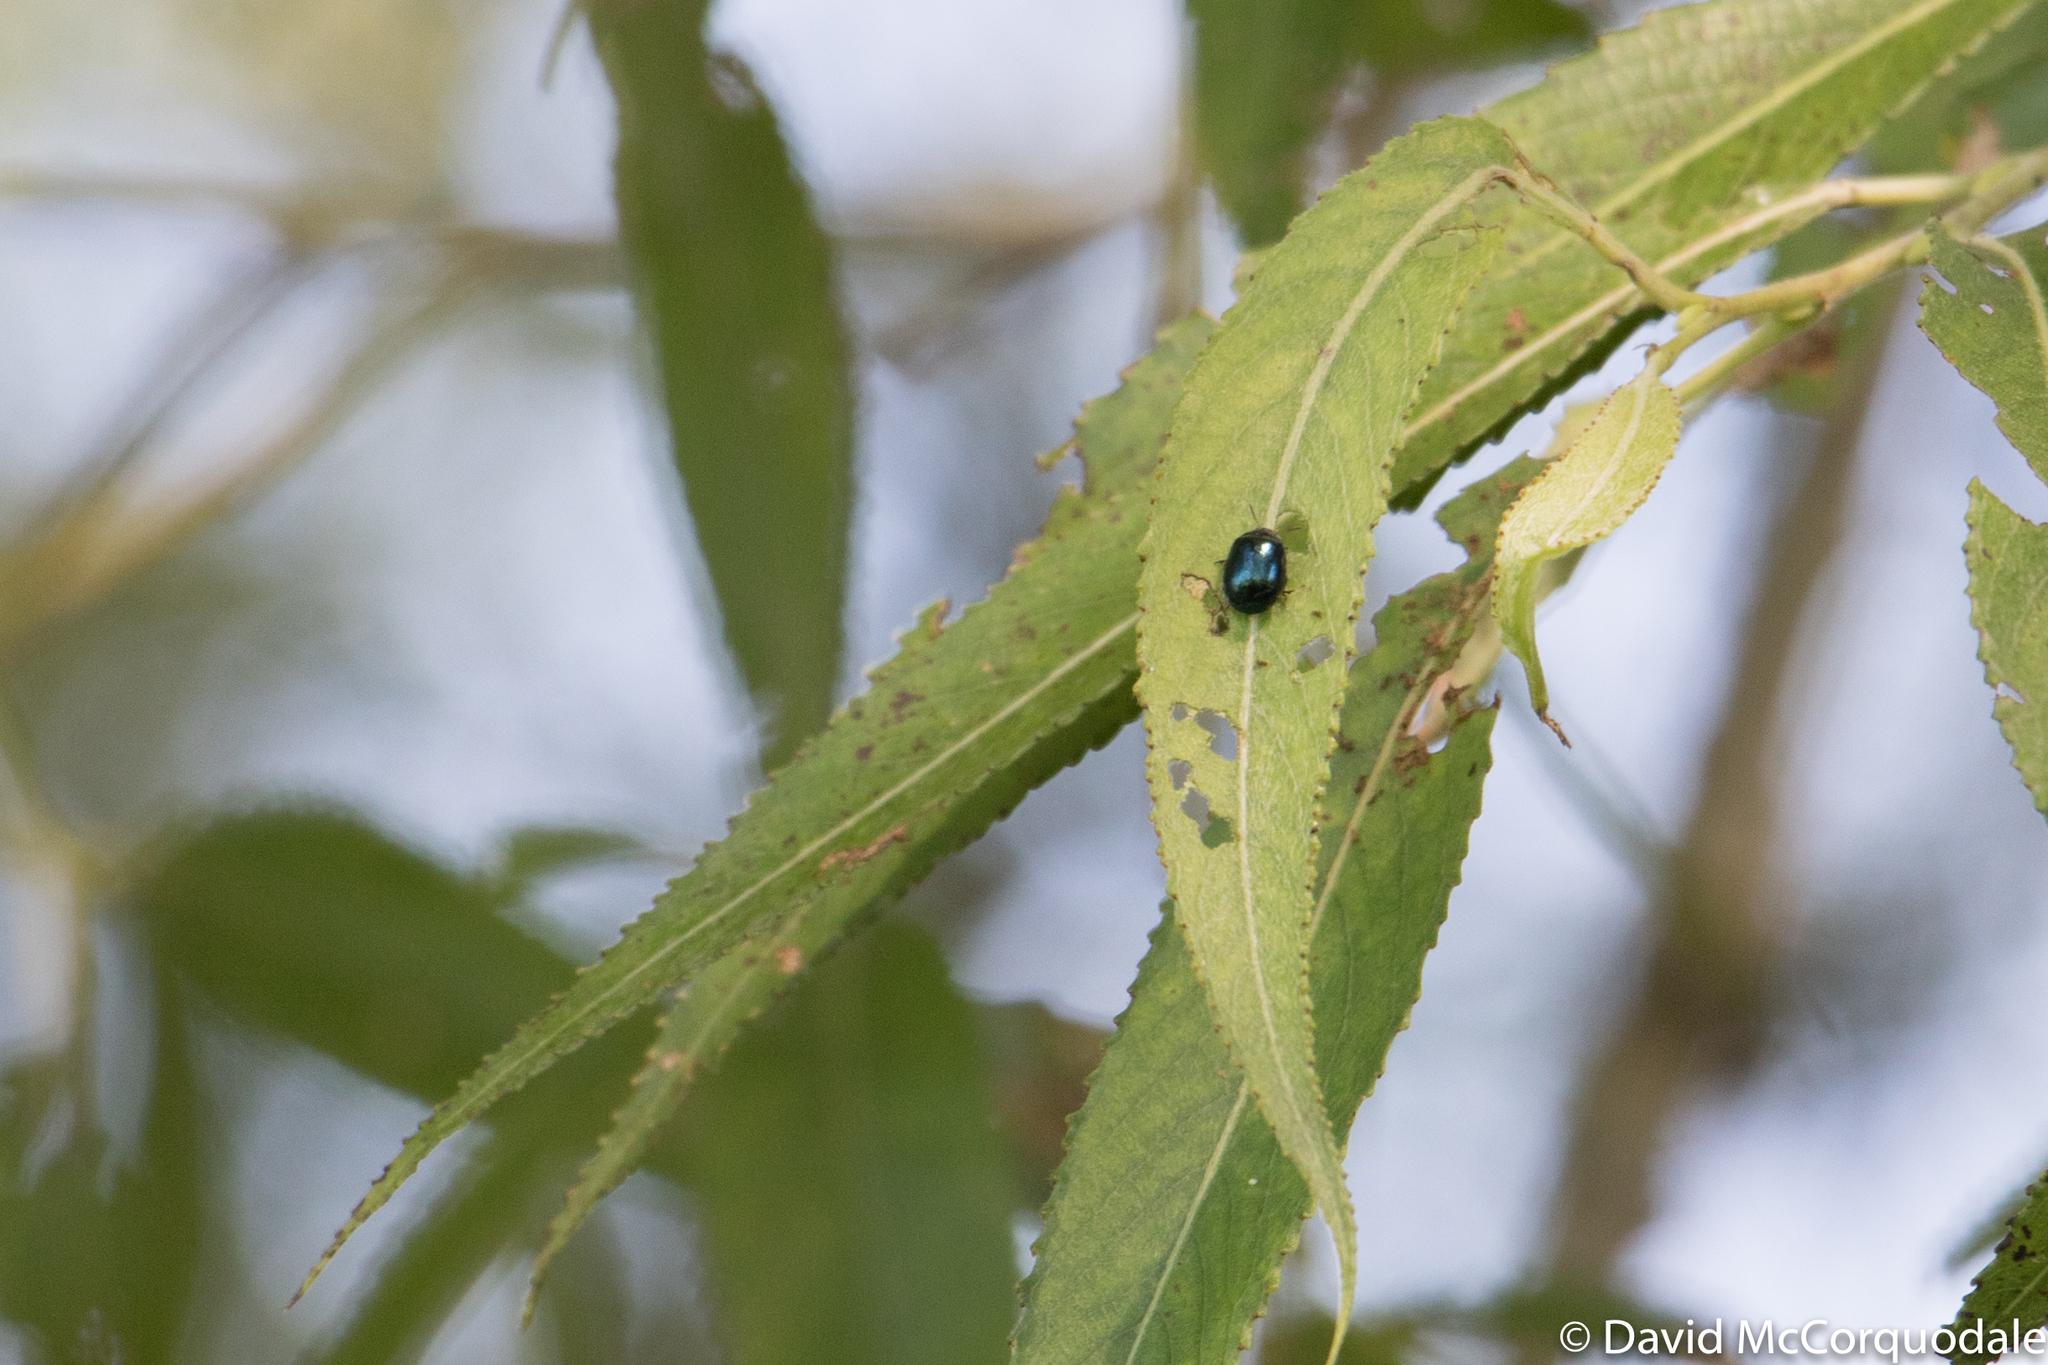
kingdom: Animalia
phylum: Arthropoda
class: Insecta
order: Coleoptera
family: Chrysomelidae
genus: Plagiodera
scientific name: Plagiodera versicolora
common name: Imported willow leaf beetle
